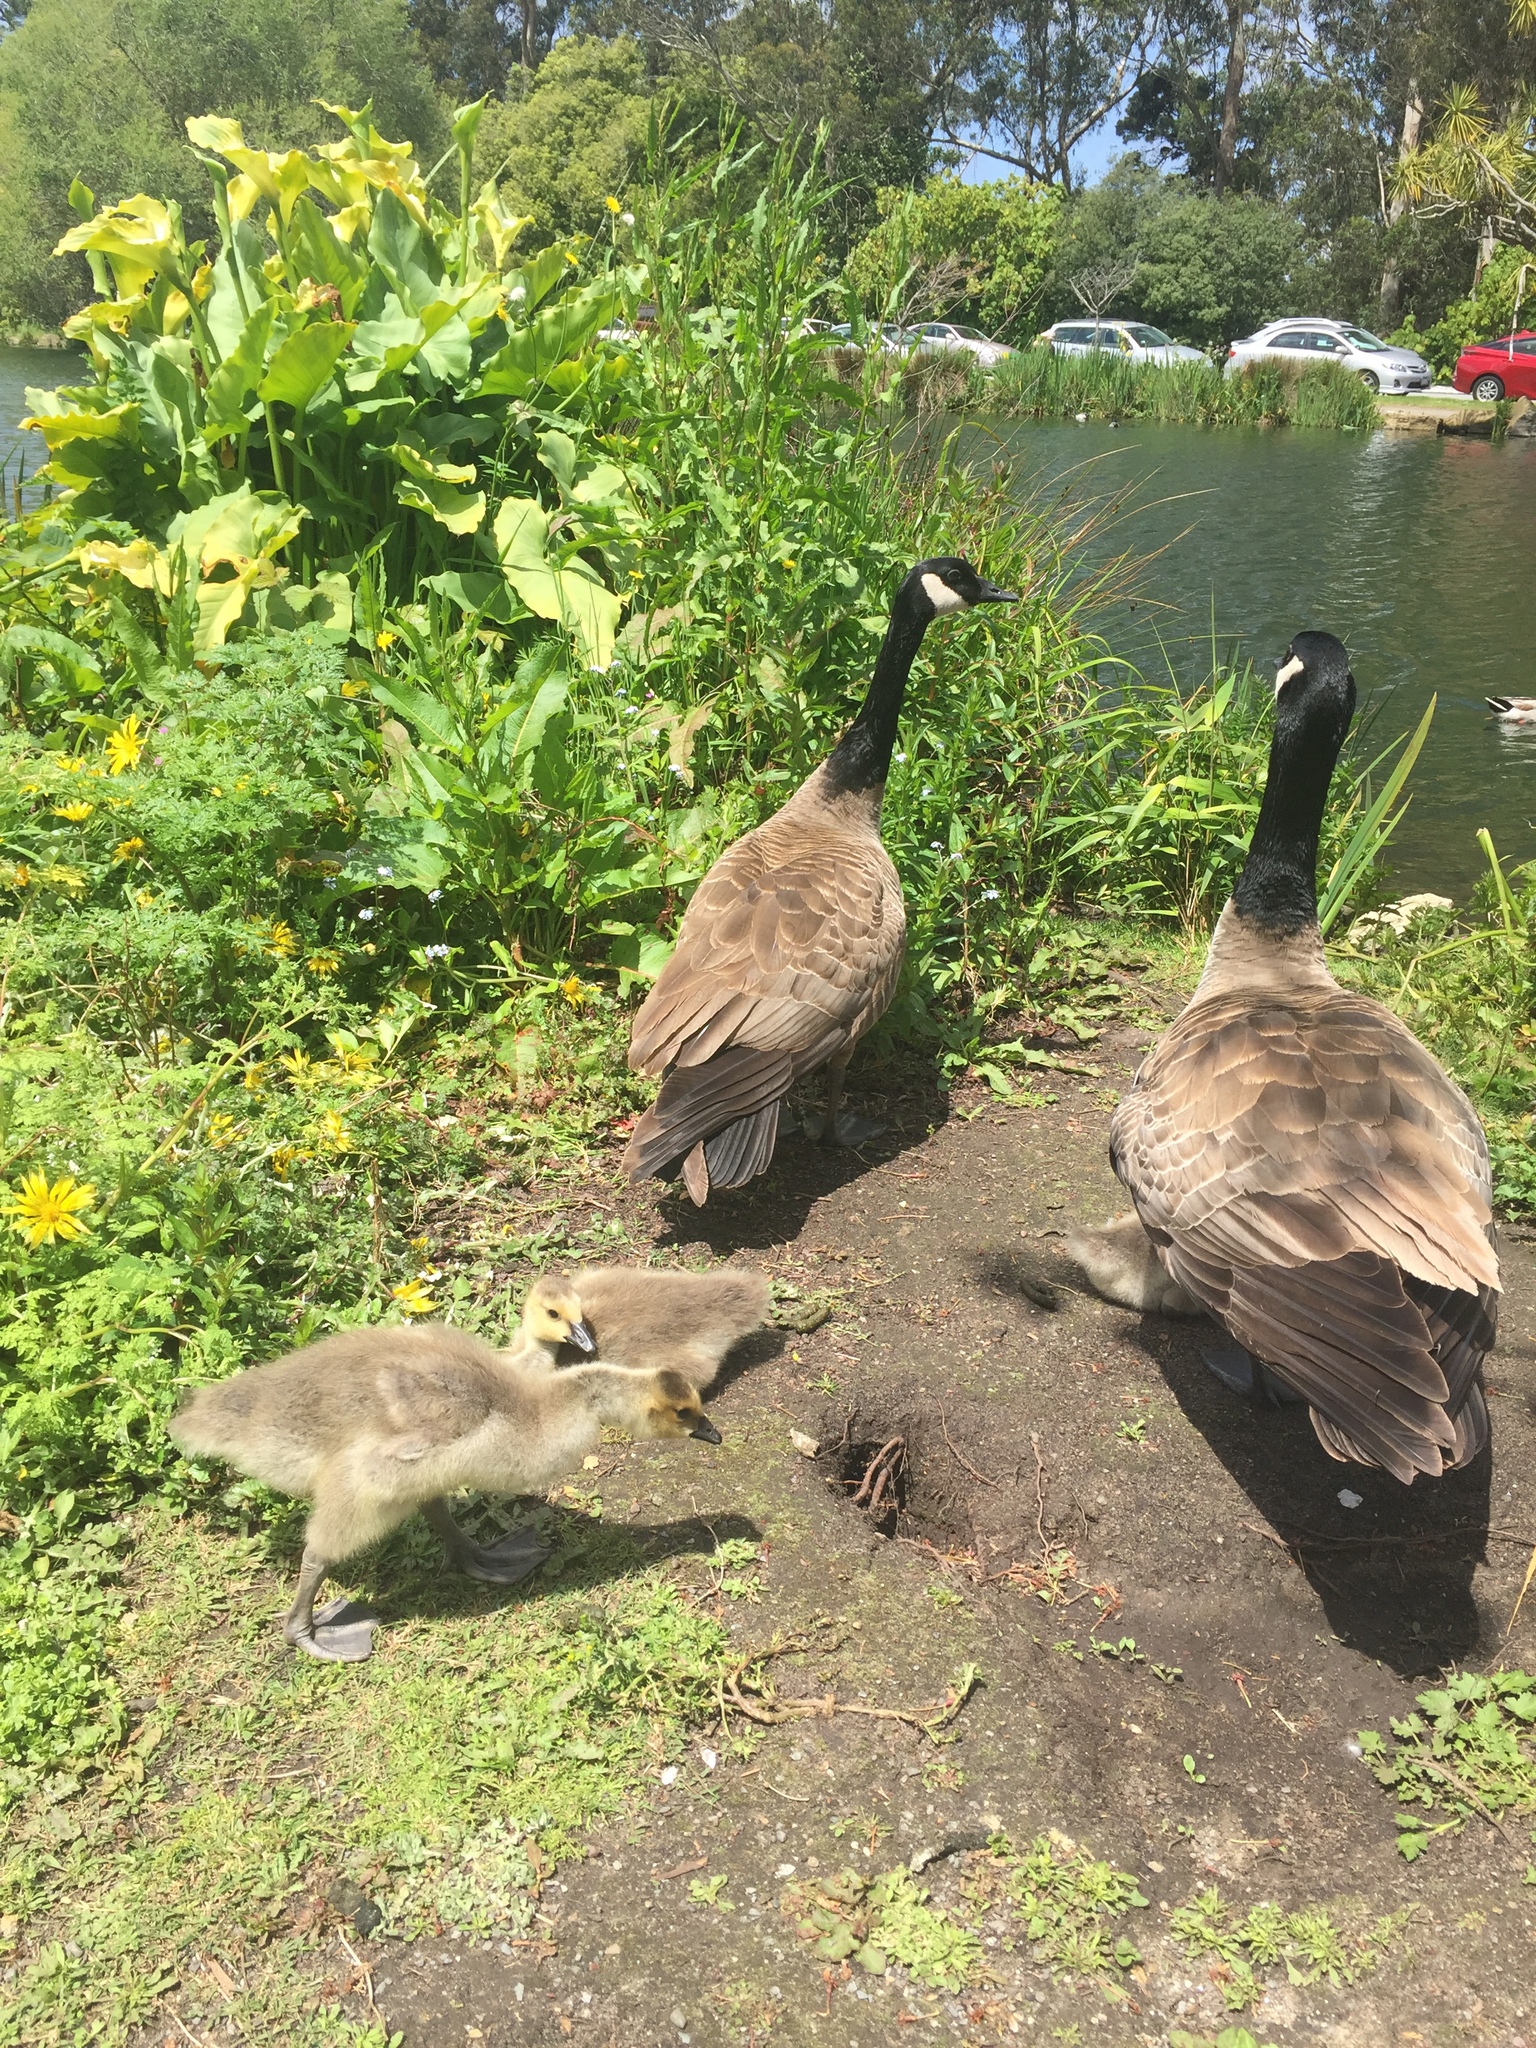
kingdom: Animalia
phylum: Chordata
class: Aves
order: Anseriformes
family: Anatidae
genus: Branta
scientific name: Branta canadensis
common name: Canada goose
